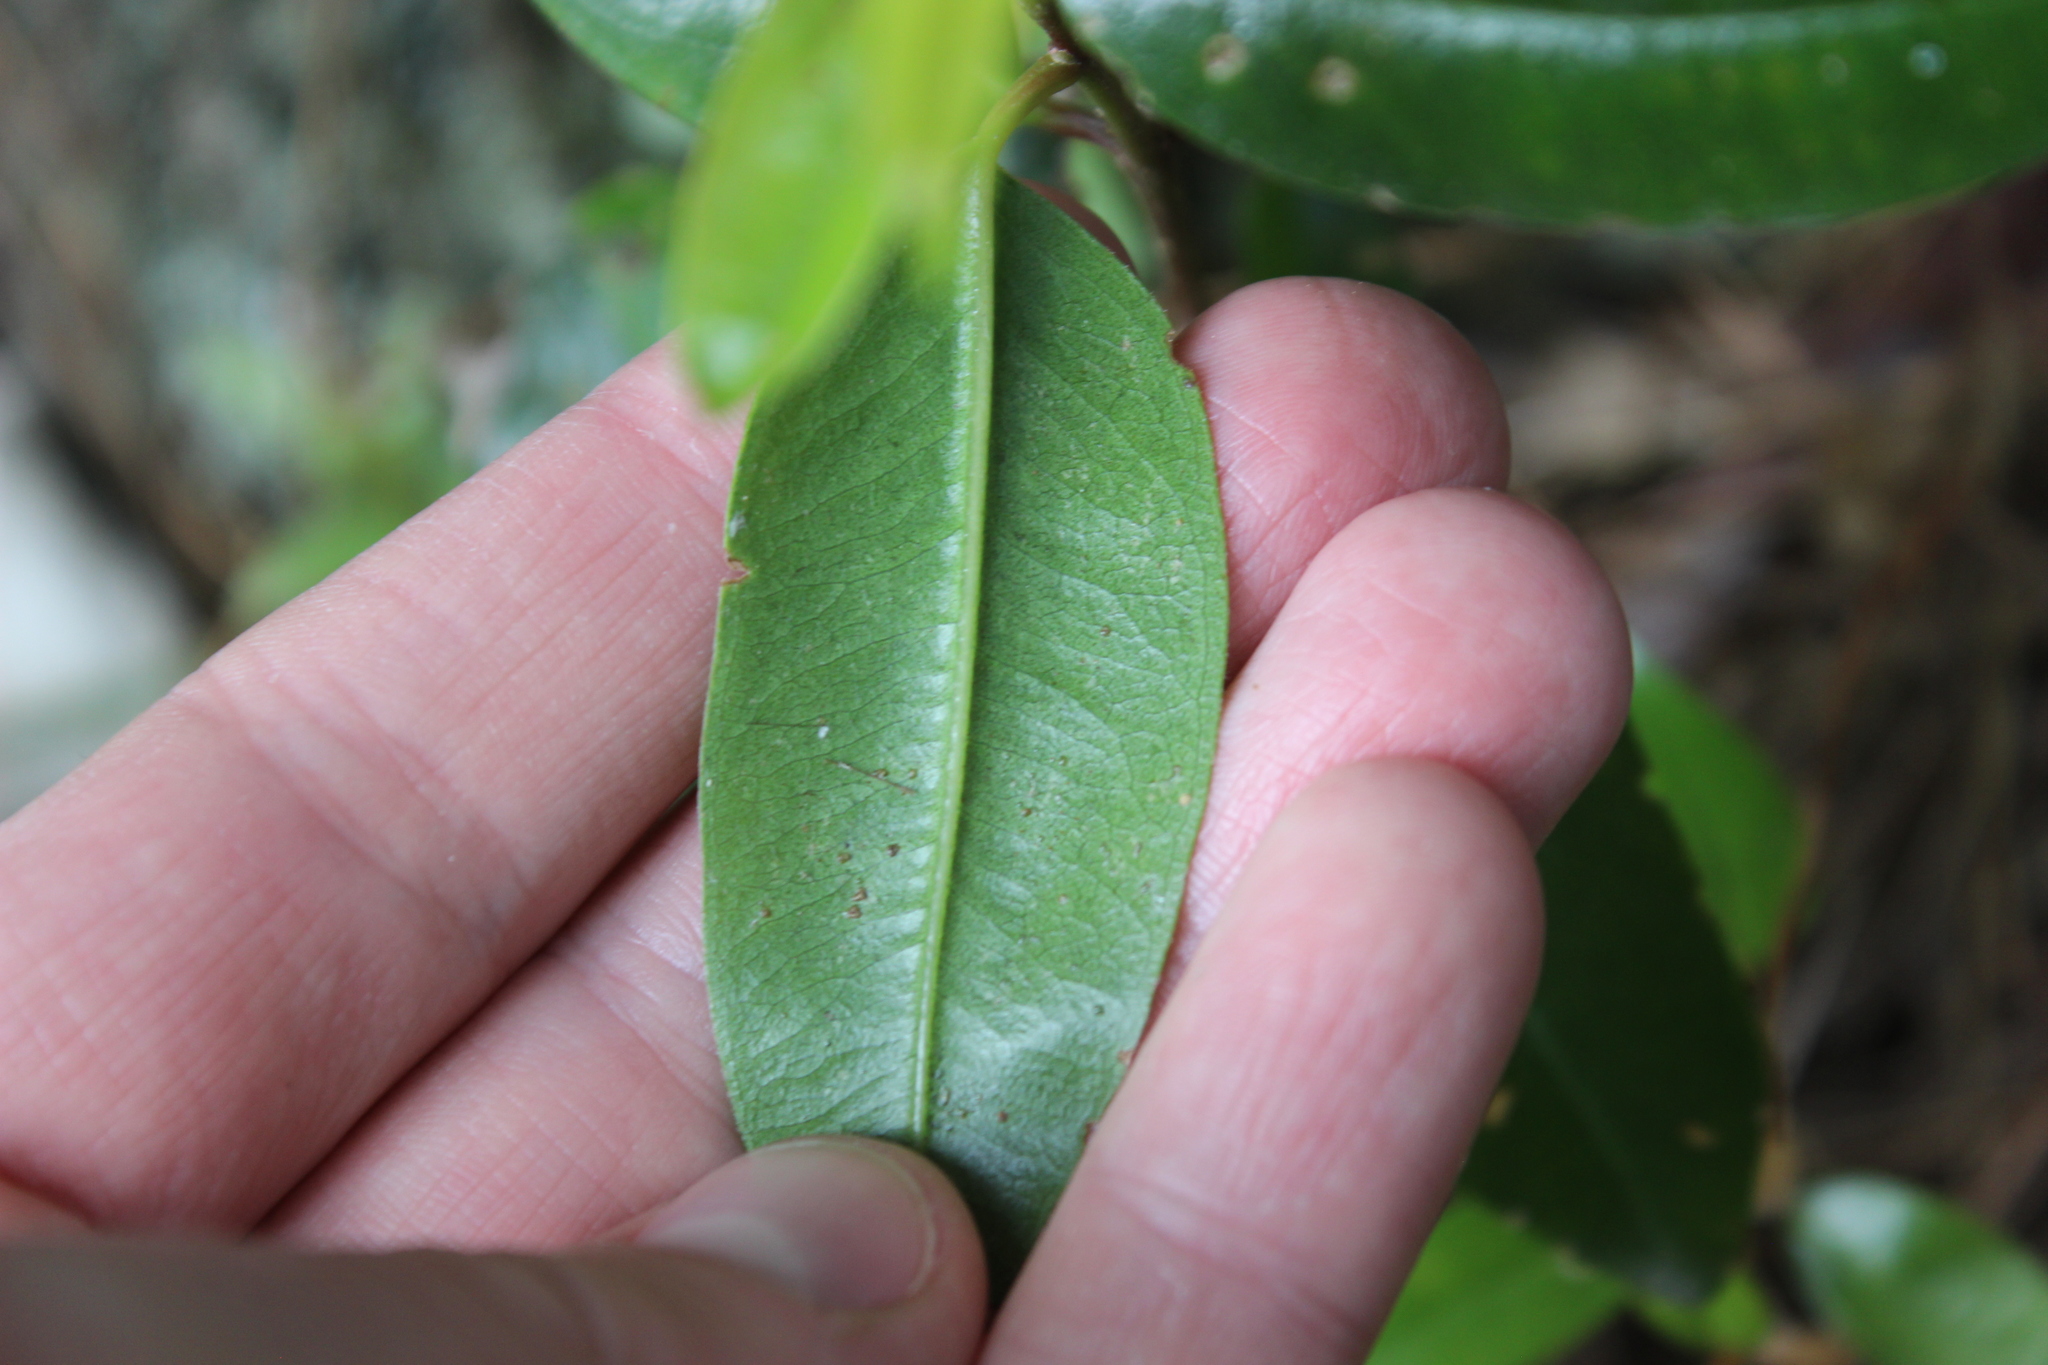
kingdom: Plantae
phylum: Tracheophyta
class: Magnoliopsida
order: Myrtales
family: Myrtaceae
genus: Metrosideros
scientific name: Metrosideros excelsa
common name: New zealand christmastree
